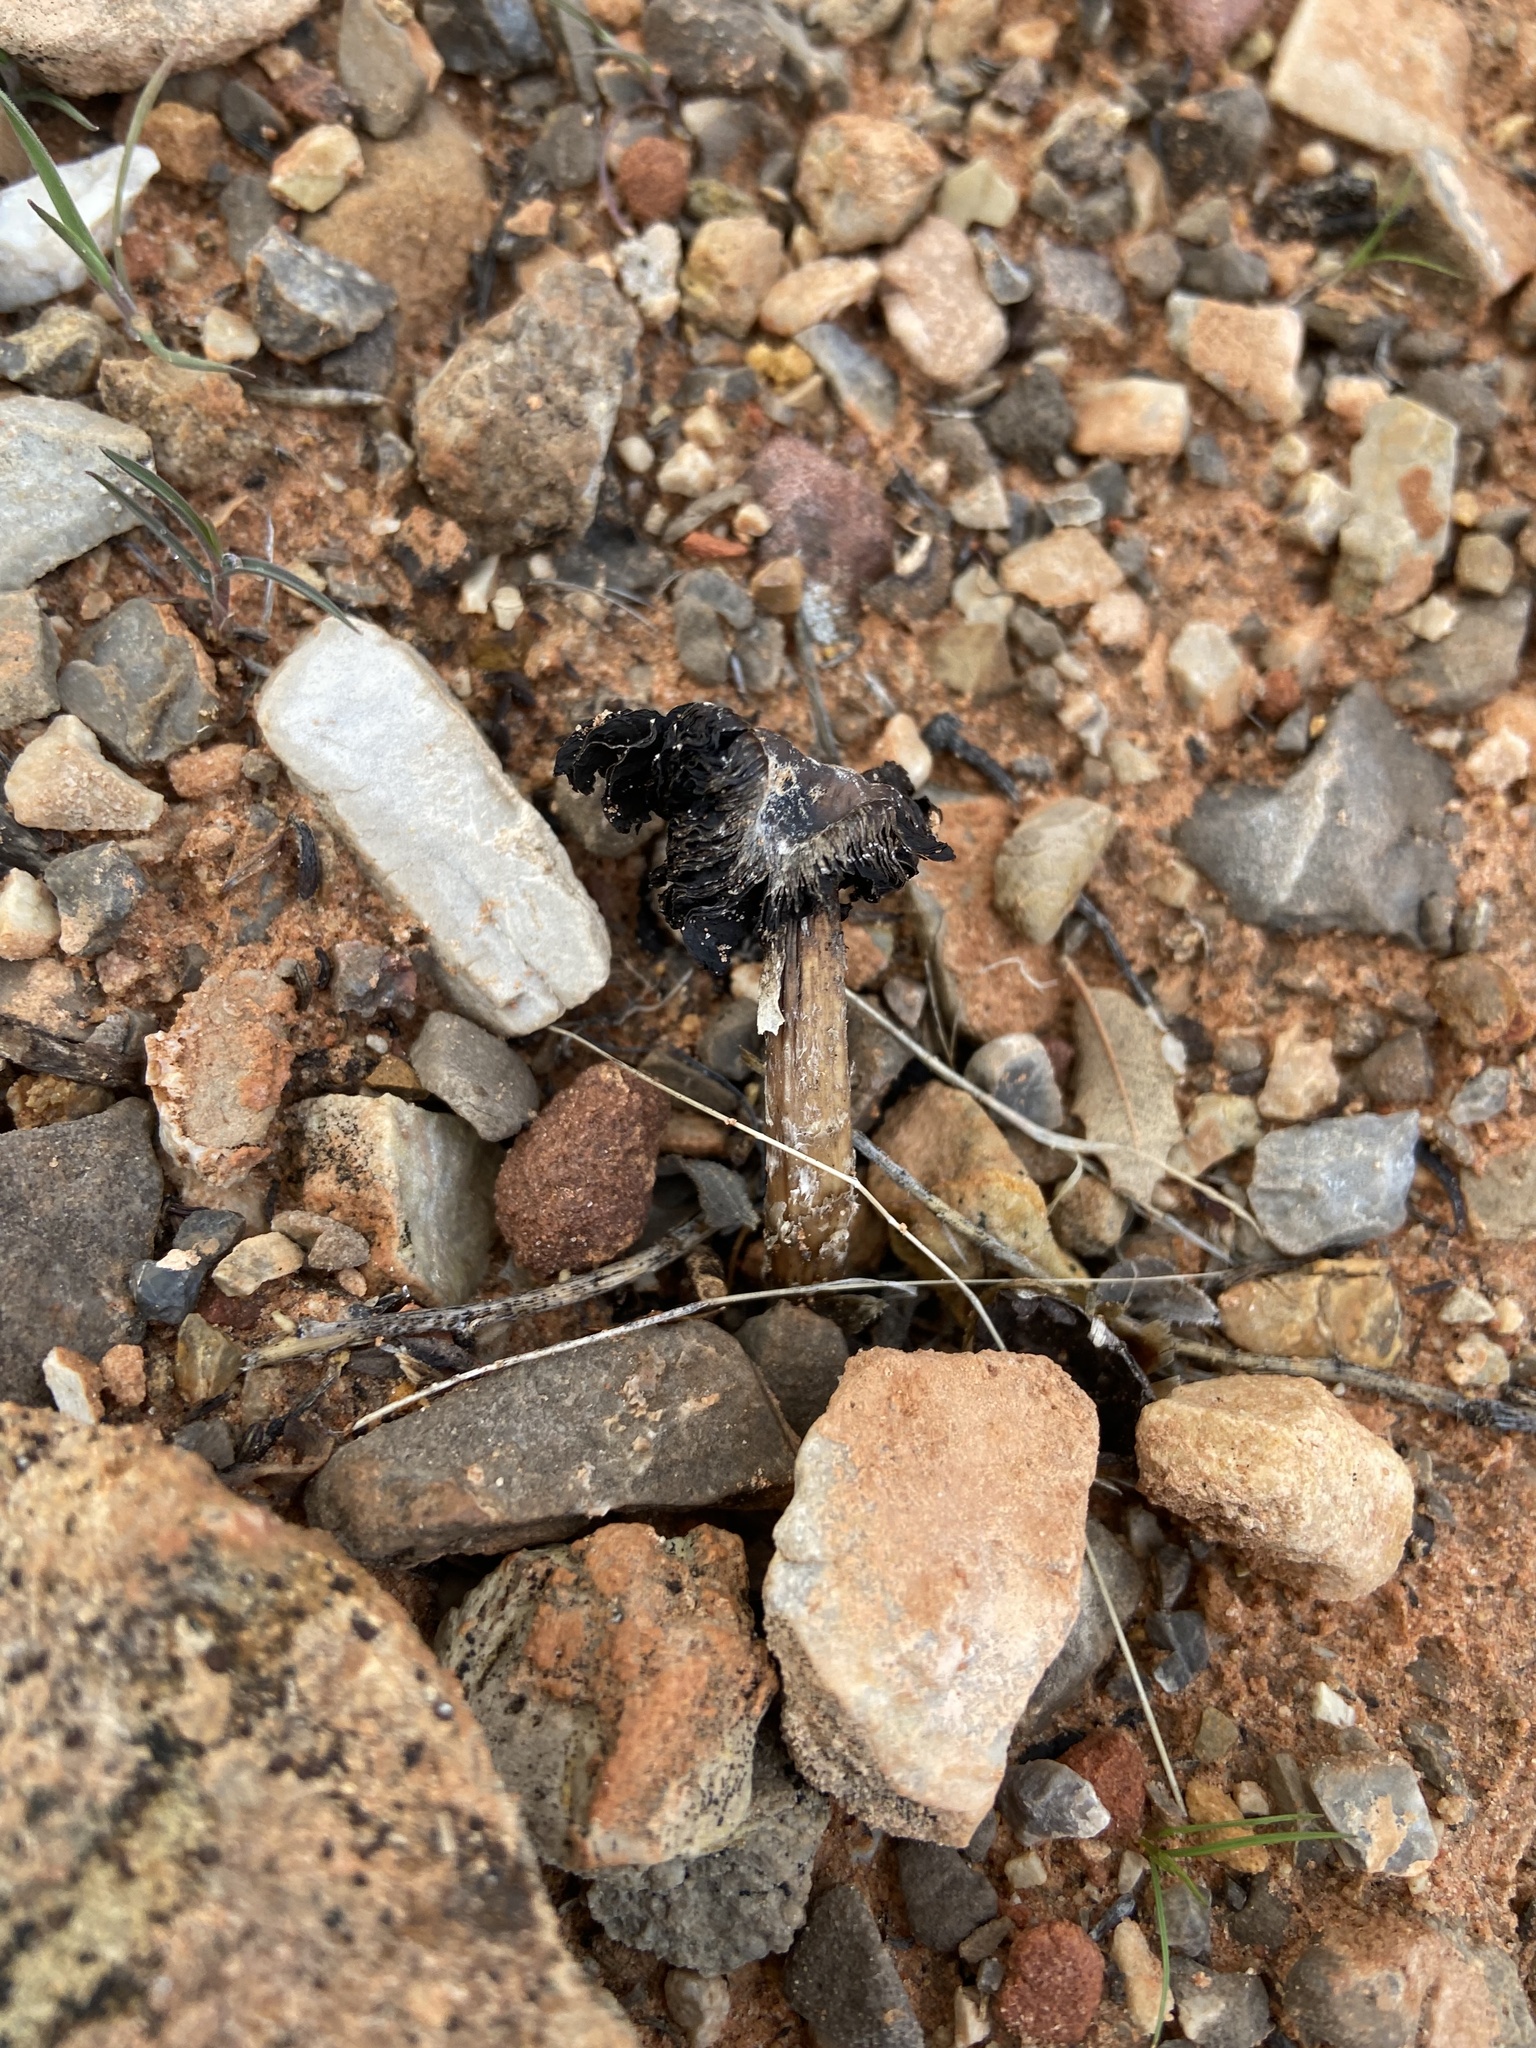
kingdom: Fungi
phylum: Basidiomycota
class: Agaricomycetes
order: Agaricales
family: Agaricaceae
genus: Montagnea
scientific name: Montagnea arenaria
